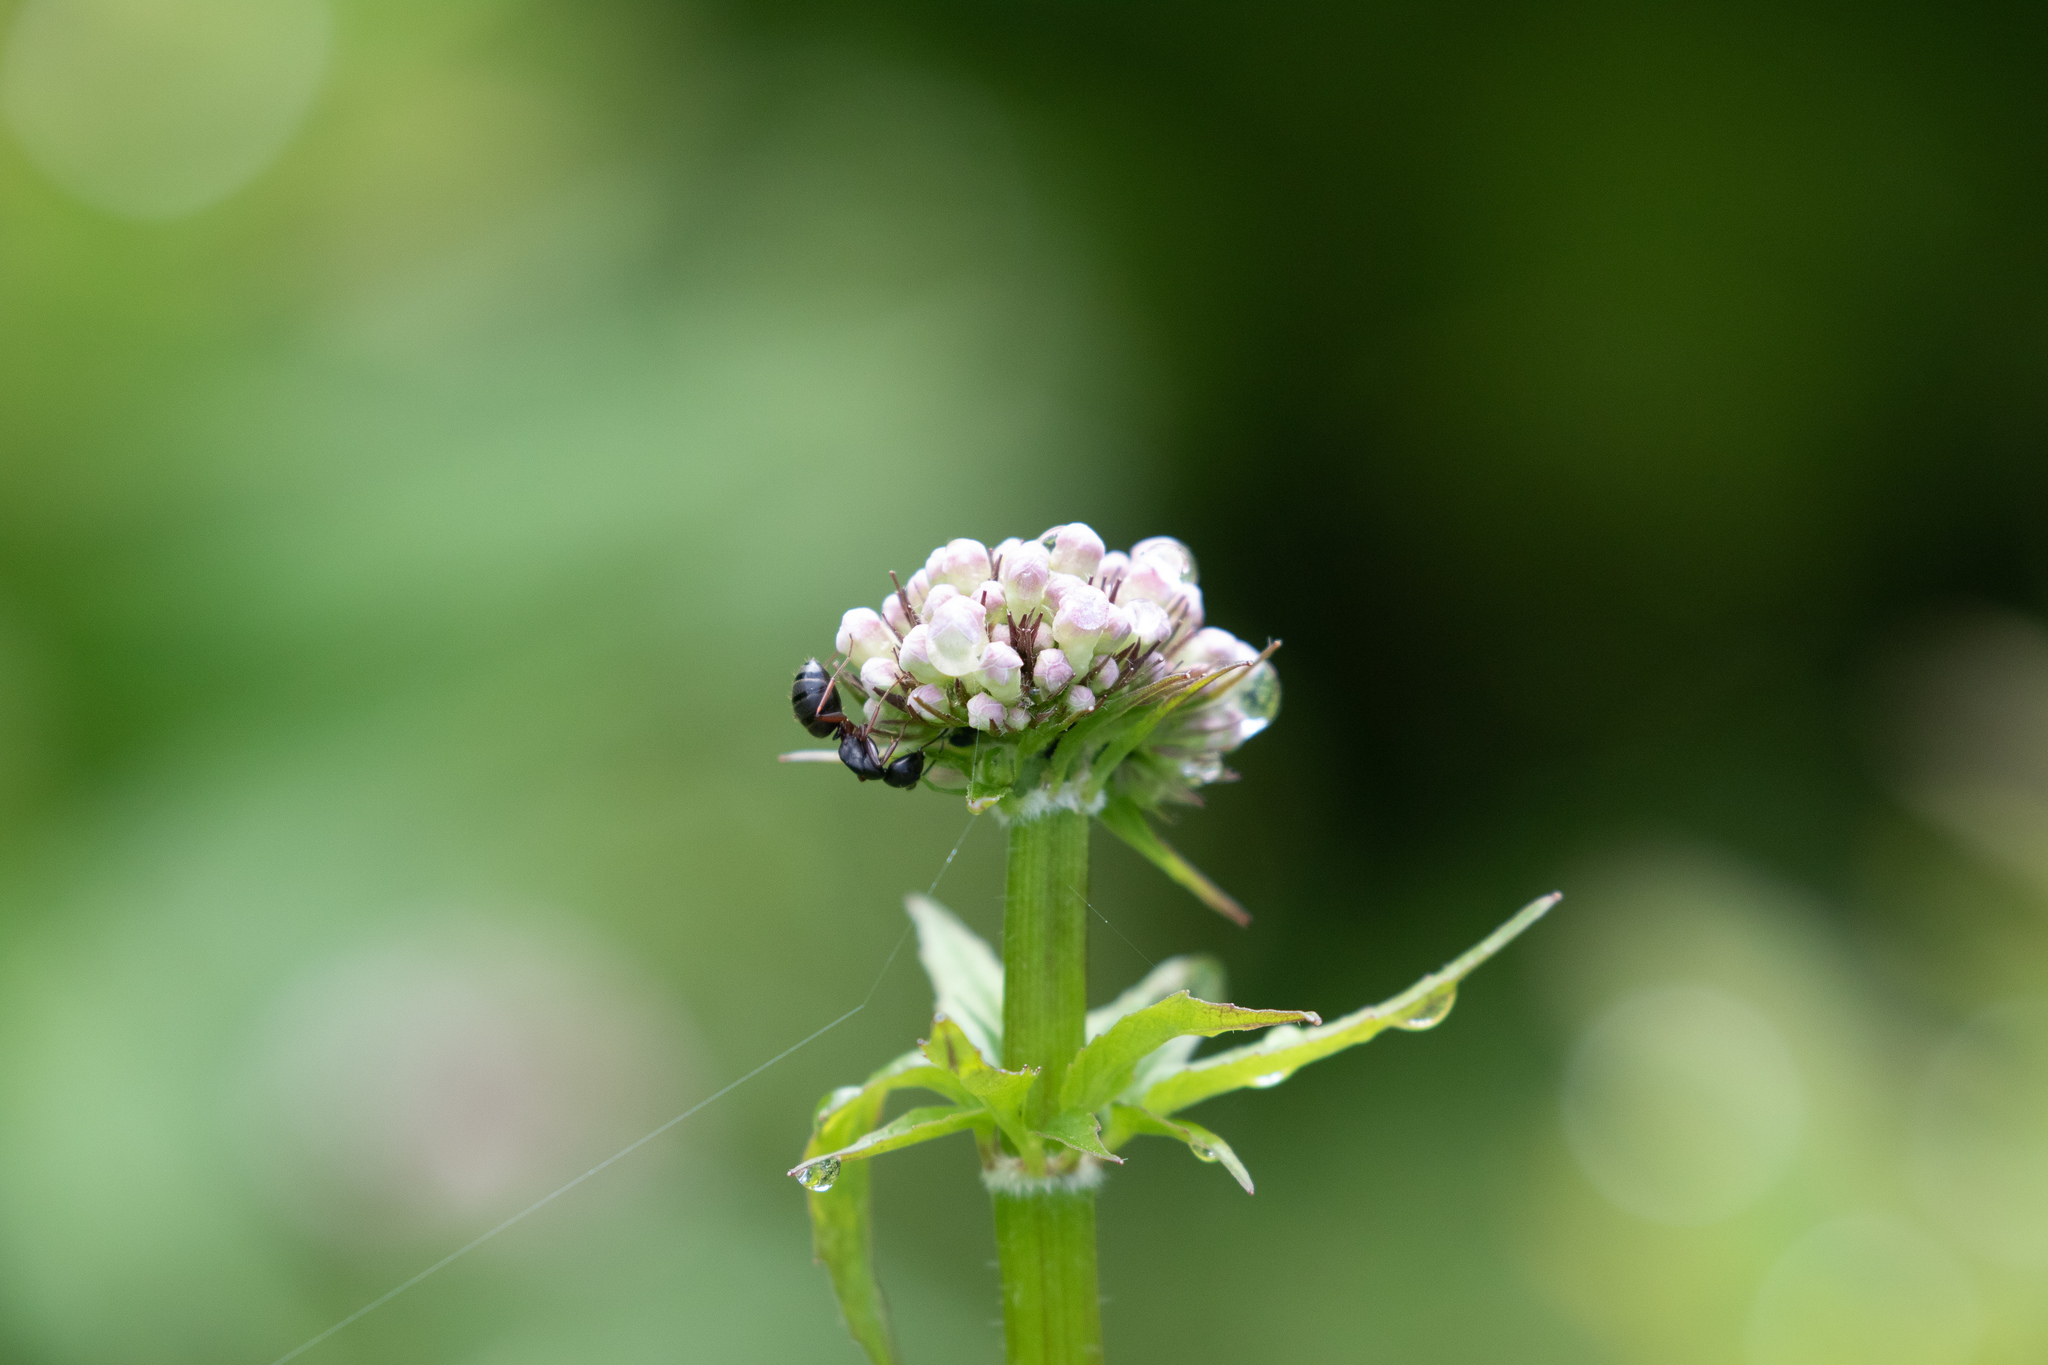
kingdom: Plantae
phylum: Tracheophyta
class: Magnoliopsida
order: Dipsacales
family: Caprifoliaceae
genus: Valeriana
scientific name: Valeriana sitchensis
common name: Pacific valerian
